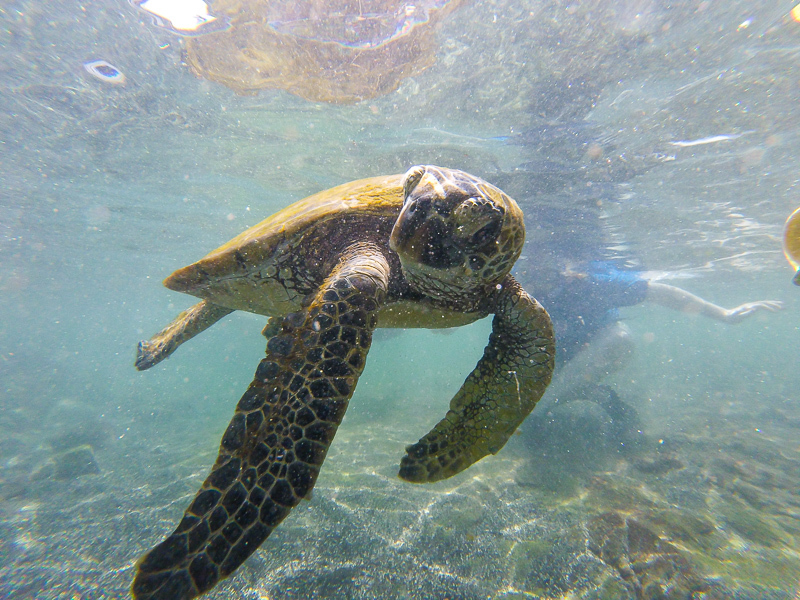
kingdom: Animalia
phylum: Chordata
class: Testudines
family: Cheloniidae
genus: Chelonia
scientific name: Chelonia mydas
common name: Green turtle
